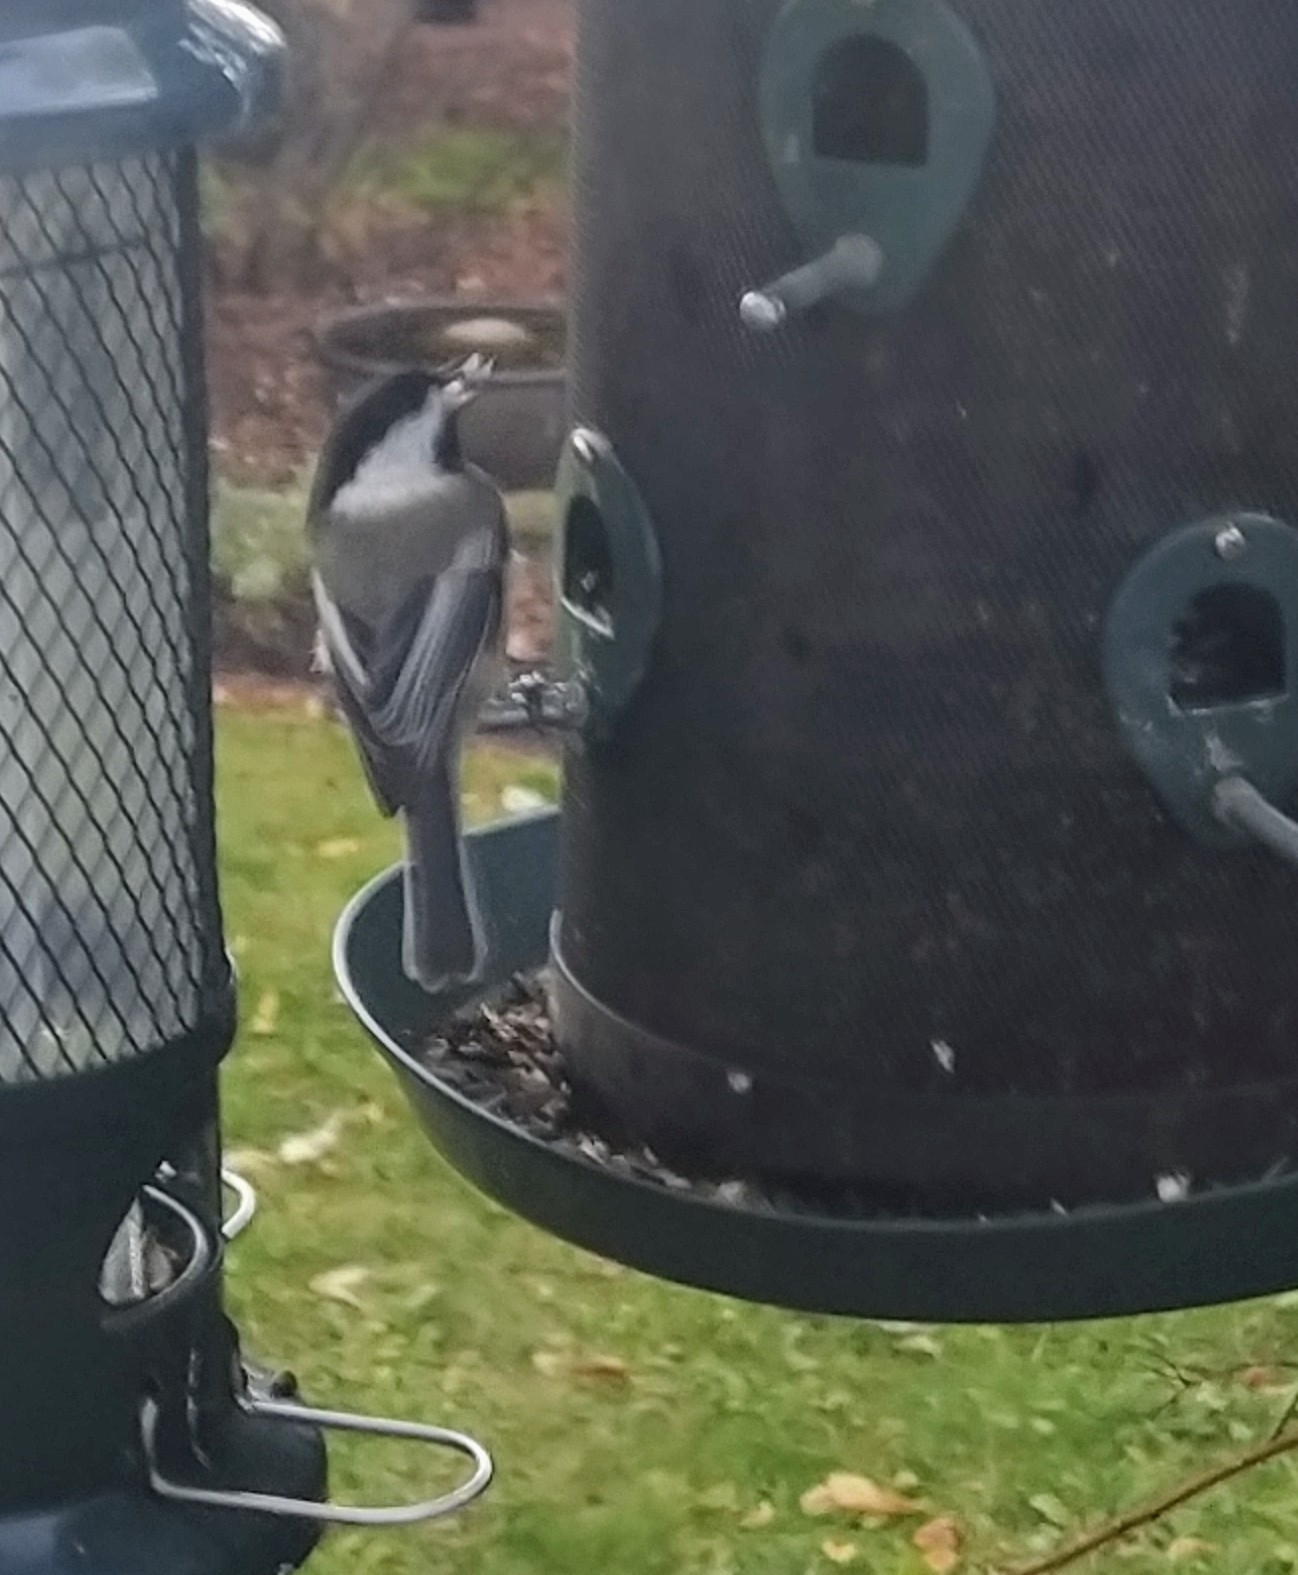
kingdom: Animalia
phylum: Chordata
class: Aves
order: Passeriformes
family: Paridae
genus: Poecile
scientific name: Poecile atricapillus
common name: Black-capped chickadee
